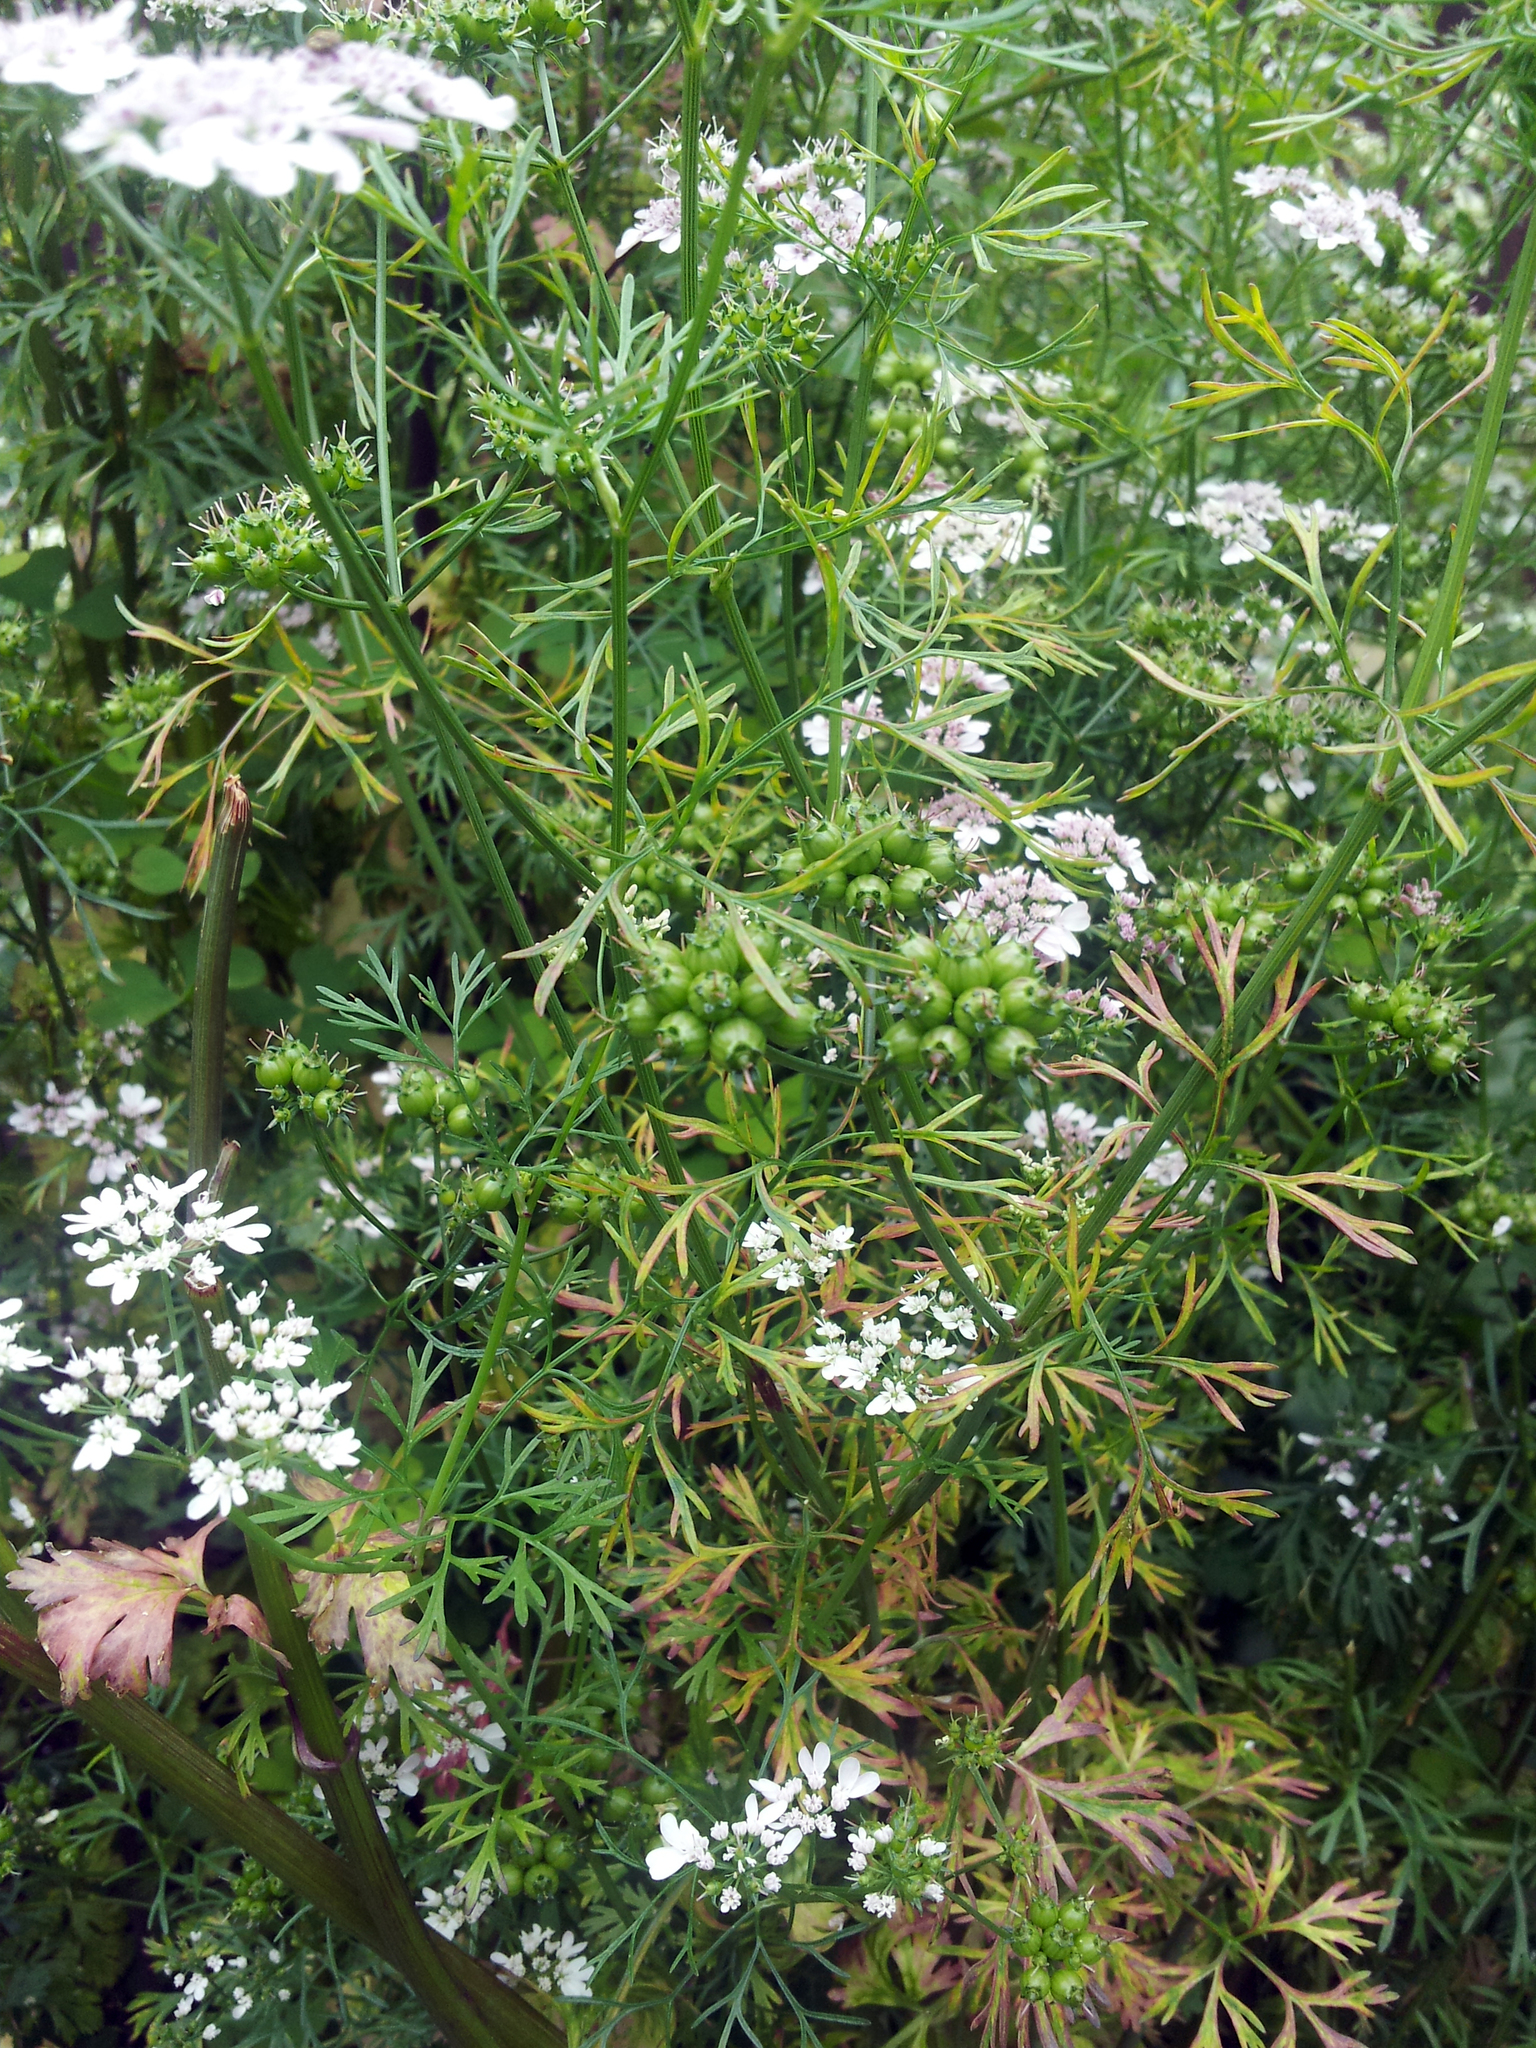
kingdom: Plantae
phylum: Tracheophyta
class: Magnoliopsida
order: Apiales
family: Apiaceae
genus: Coriandrum
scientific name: Coriandrum sativum
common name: Coriander
